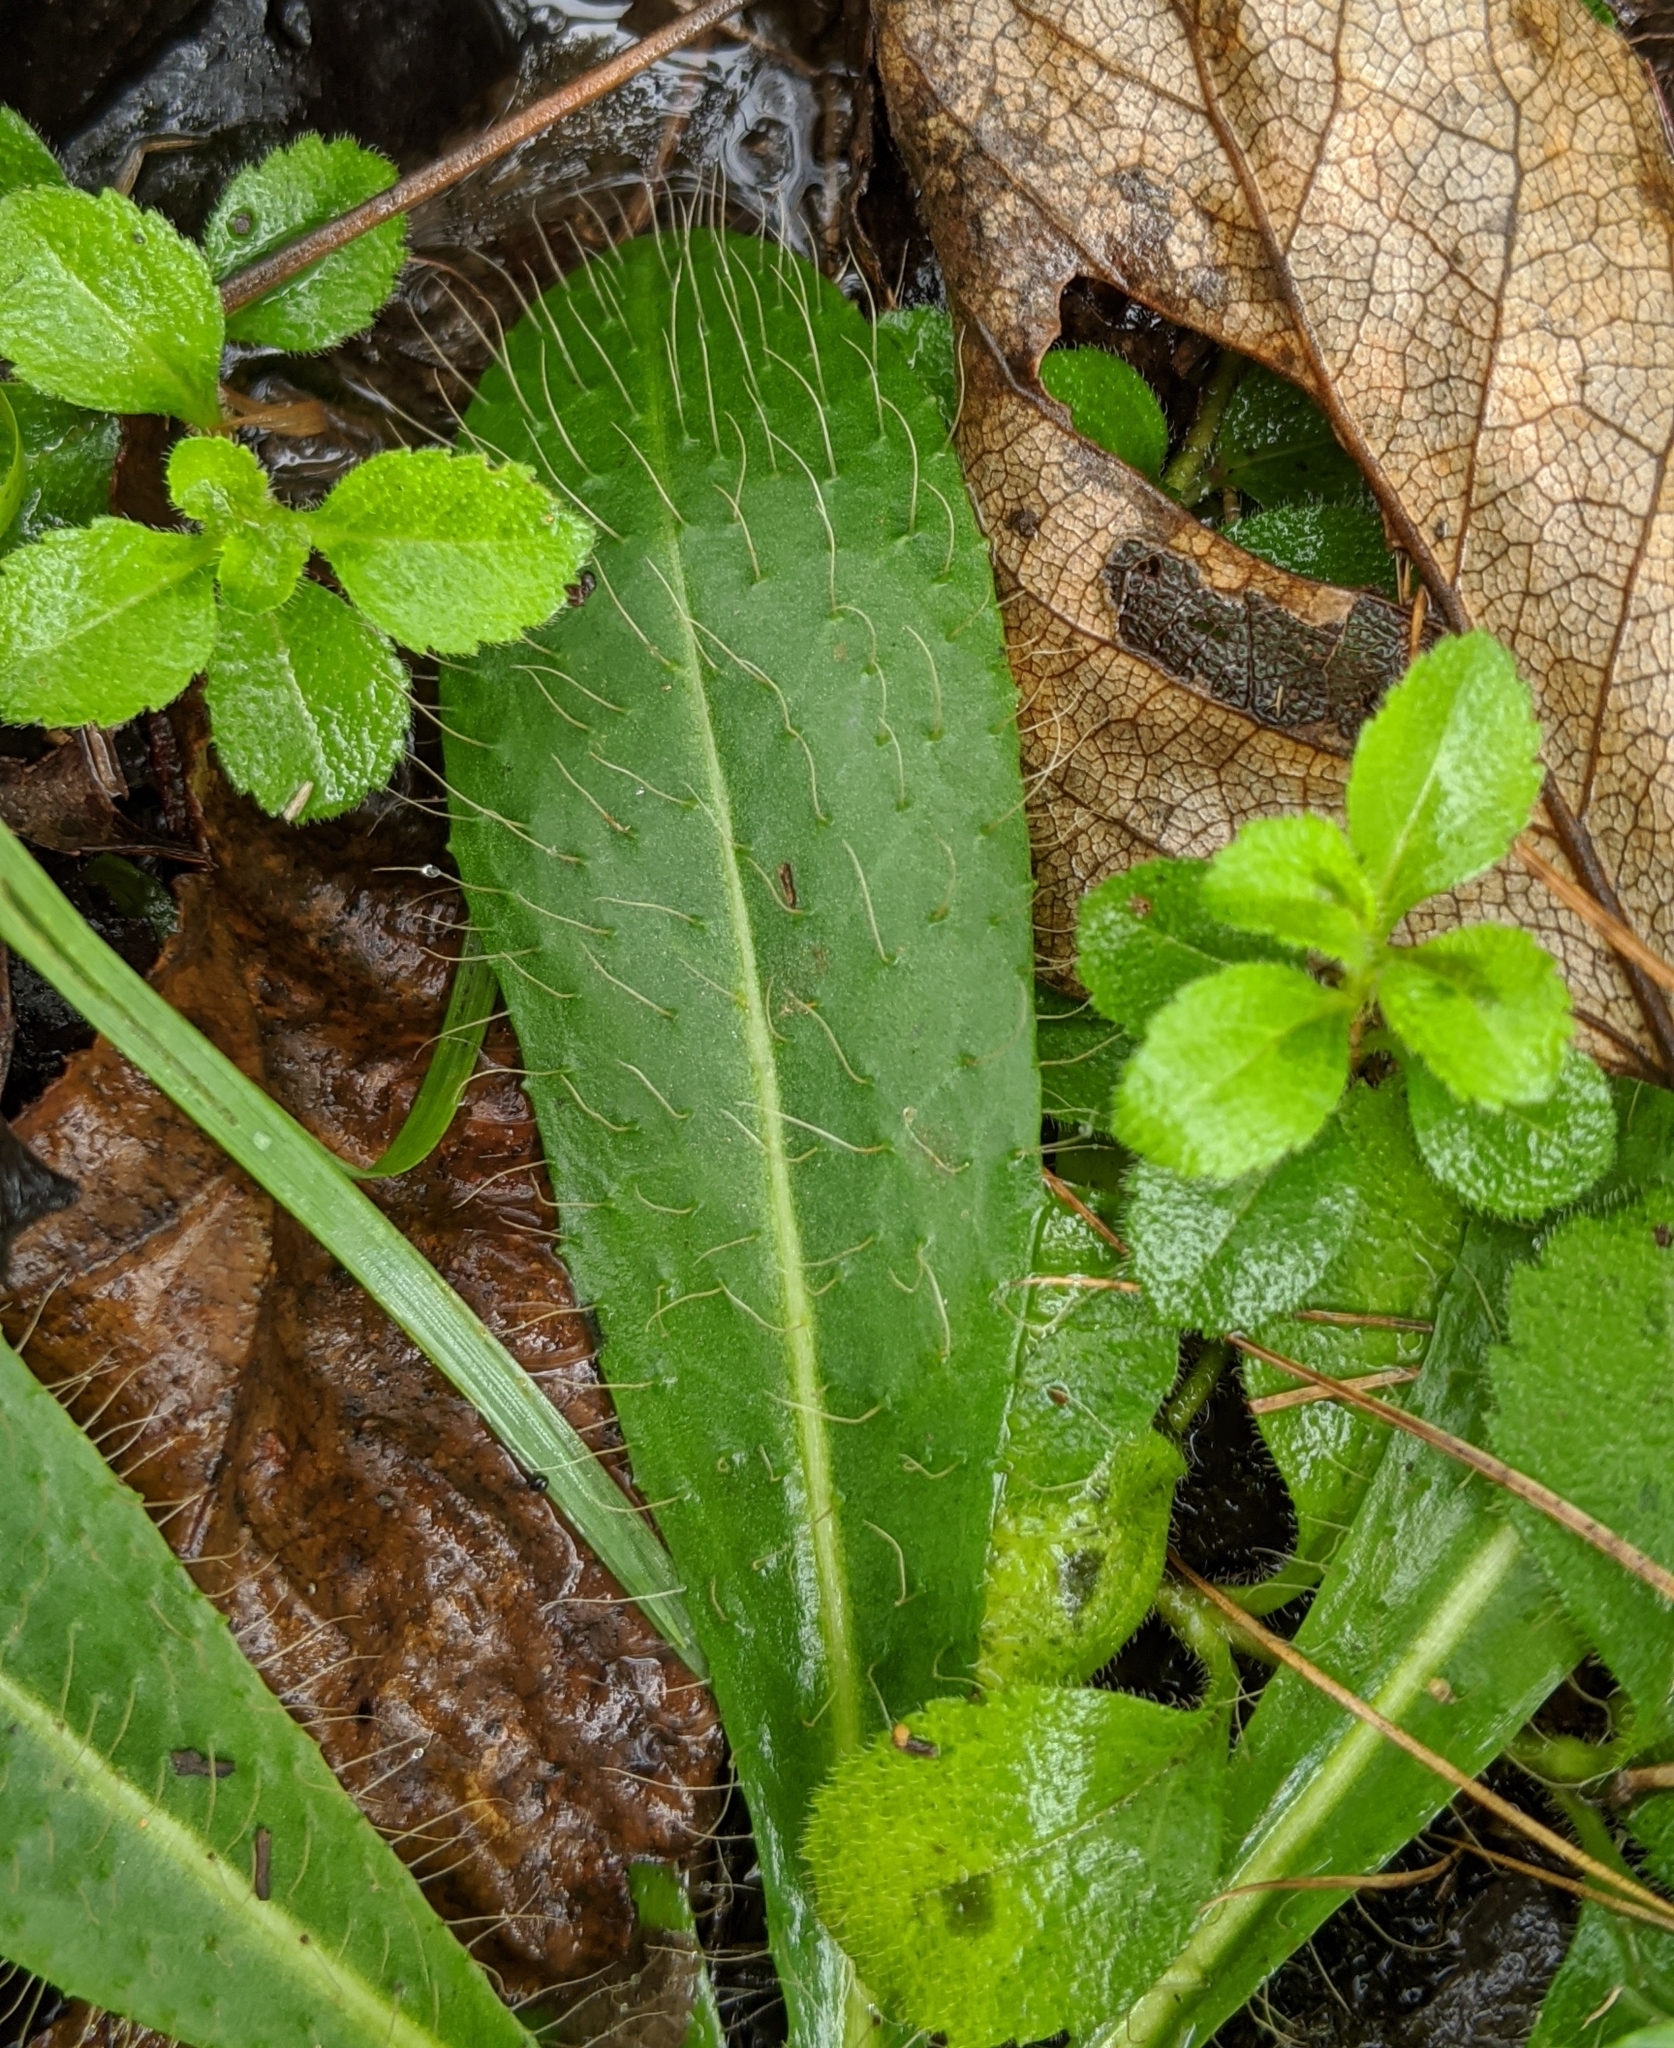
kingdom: Plantae
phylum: Tracheophyta
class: Magnoliopsida
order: Asterales
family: Asteraceae
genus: Hieracium
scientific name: Hieracium albiflorum
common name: White hawkweed
